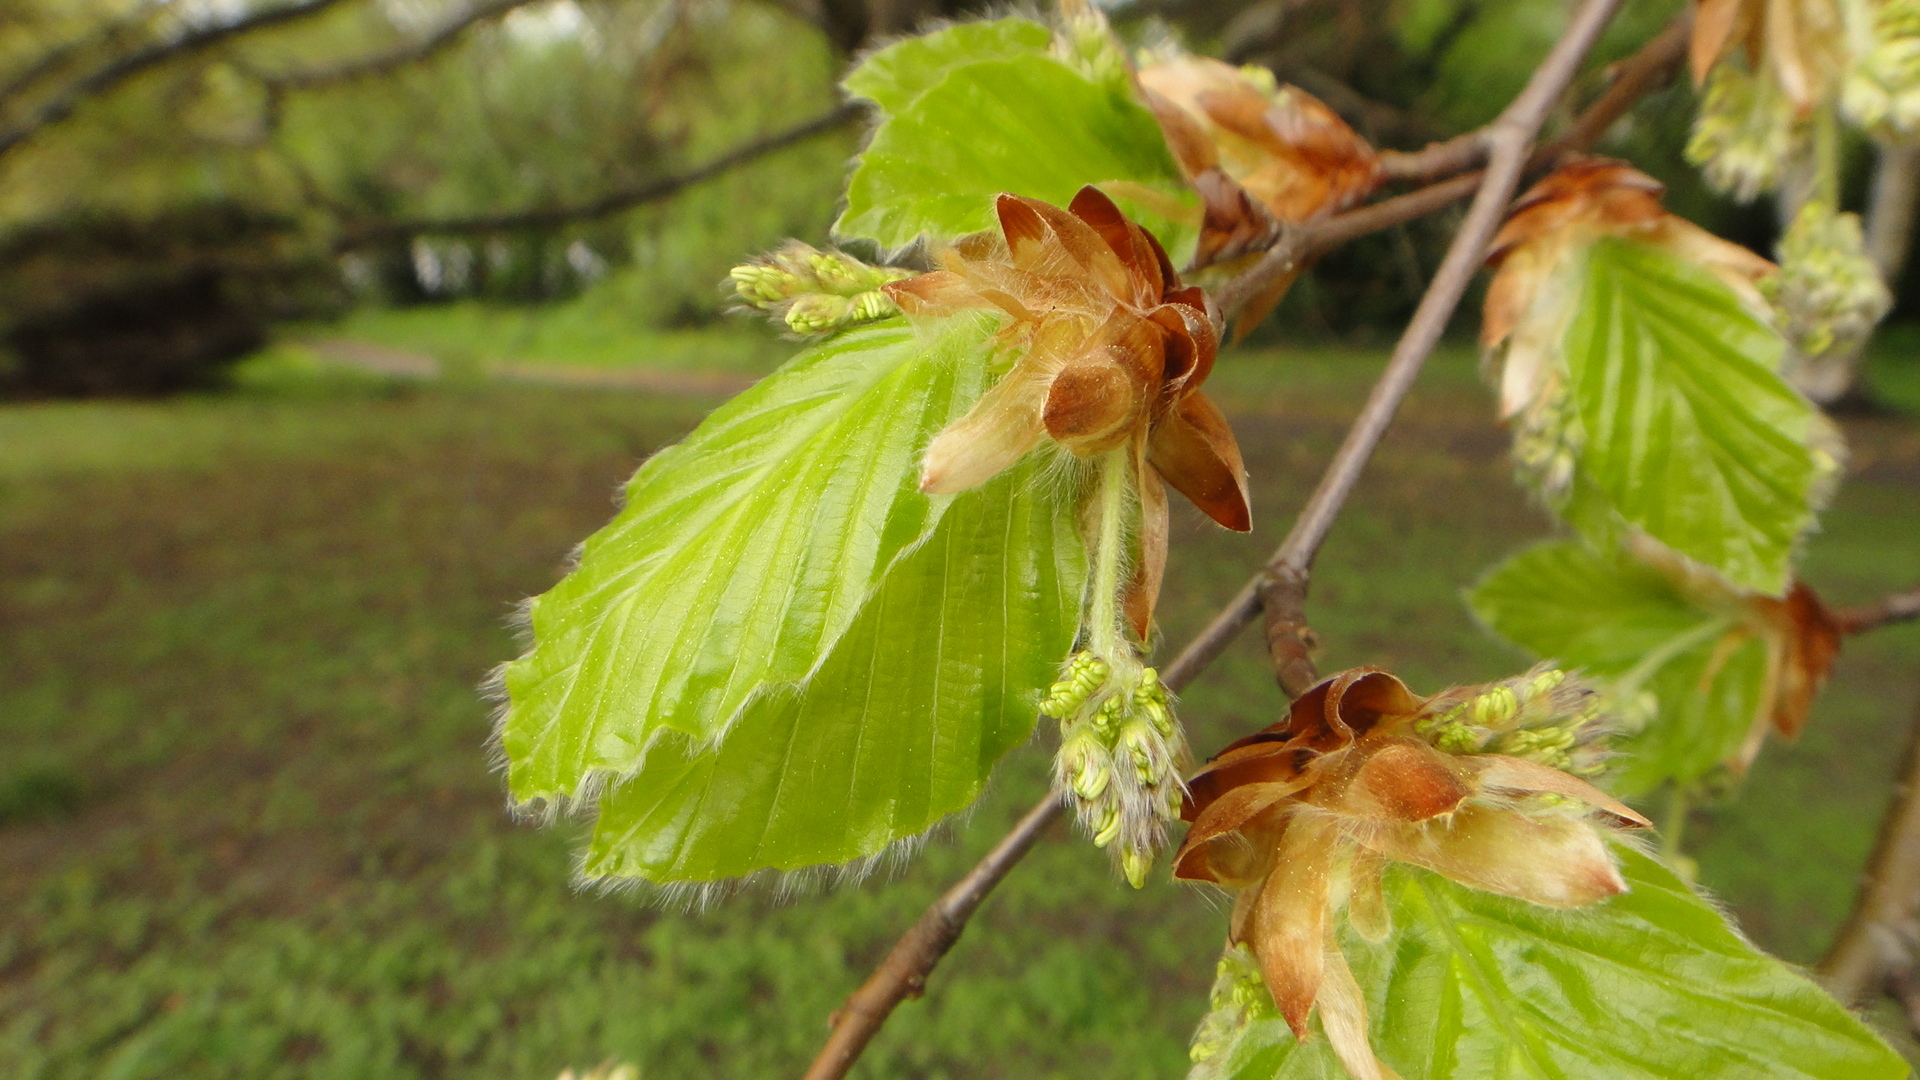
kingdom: Plantae
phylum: Tracheophyta
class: Magnoliopsida
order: Fagales
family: Fagaceae
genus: Fagus
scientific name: Fagus sylvatica
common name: Beech
